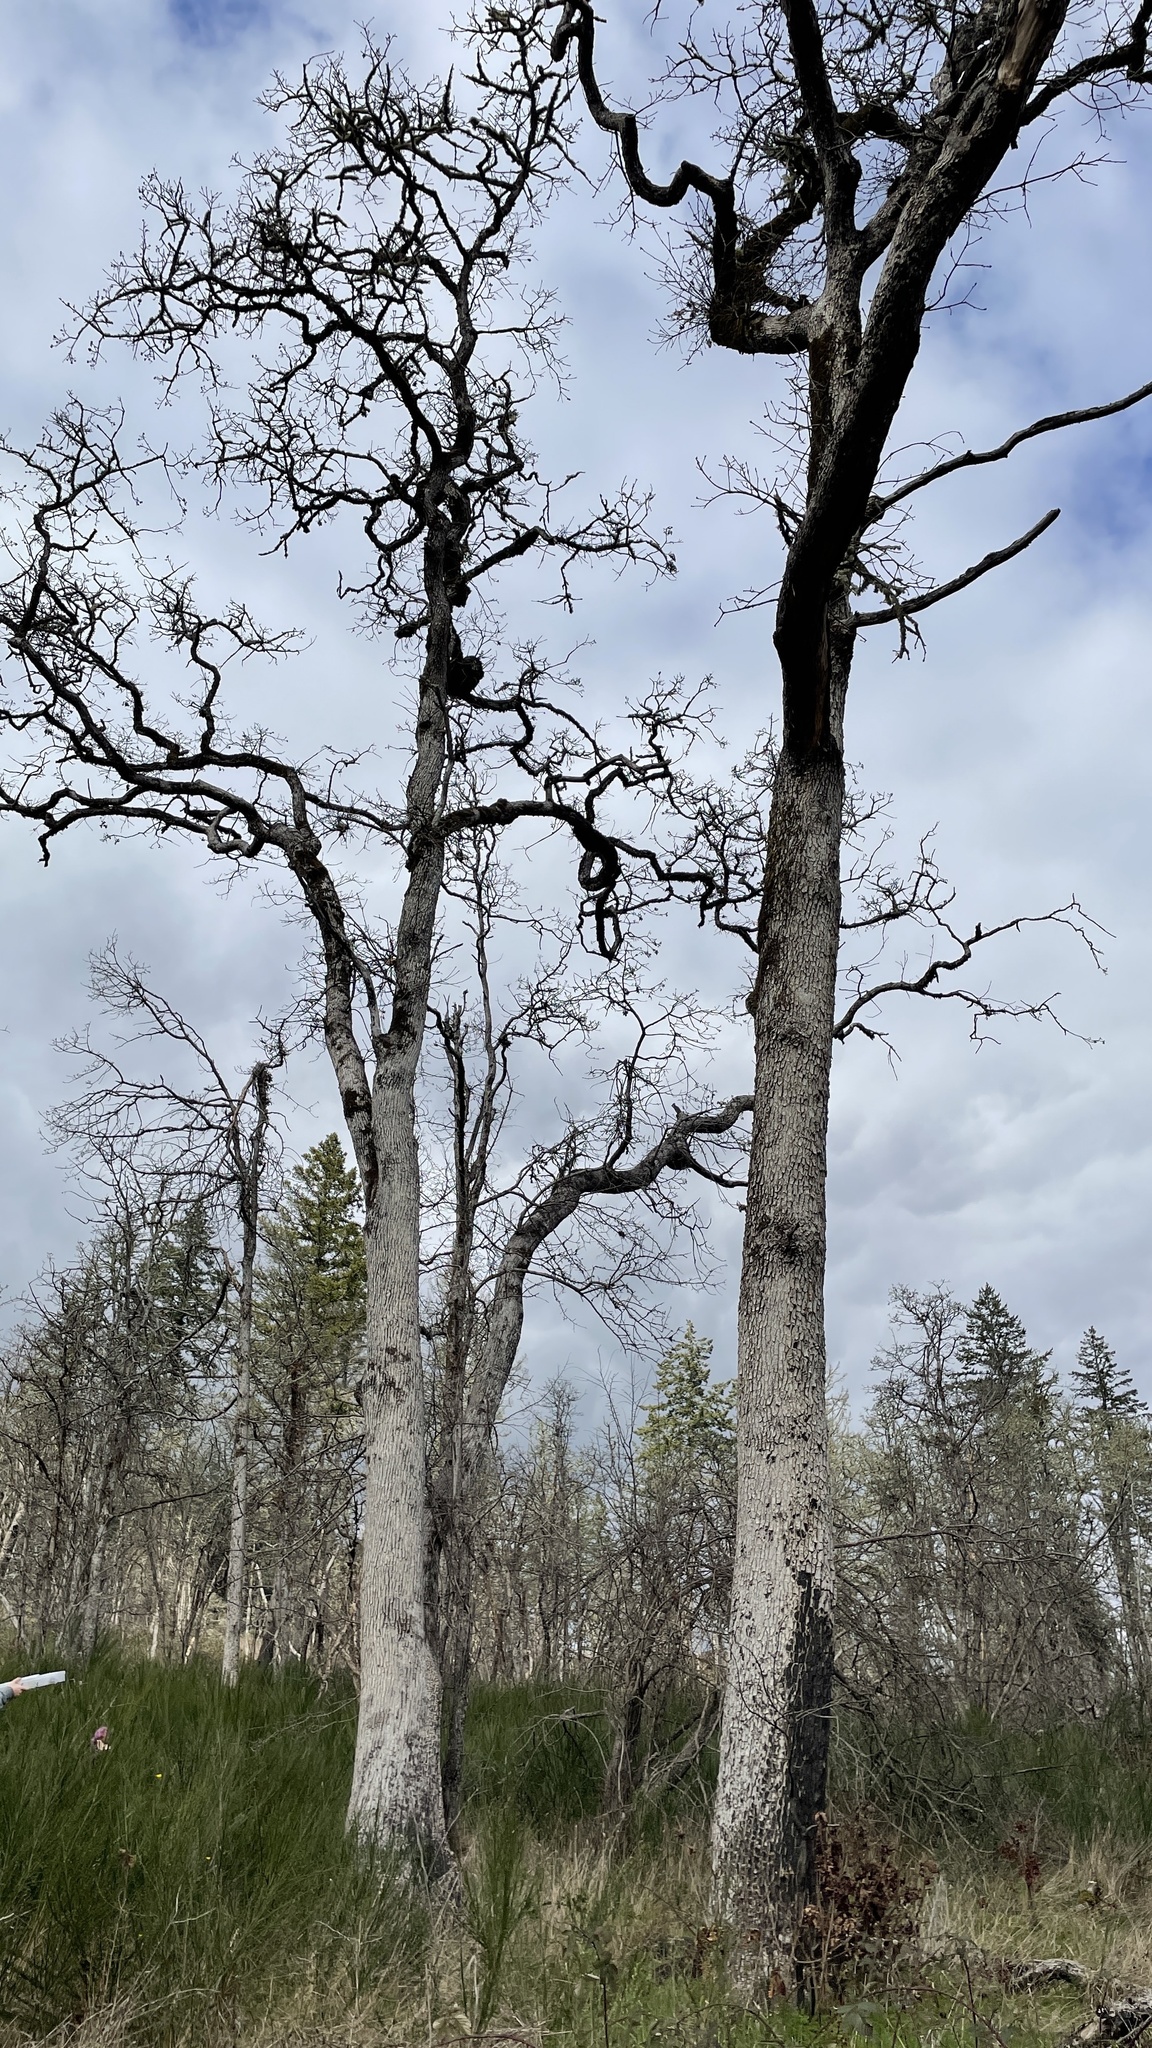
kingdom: Fungi
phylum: Basidiomycota
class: Agaricomycetes
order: Gloeophyllales
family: Gloeophyllaceae
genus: Gloeophyllum
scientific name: Gloeophyllum sepiarium
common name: Conifer mazegill
